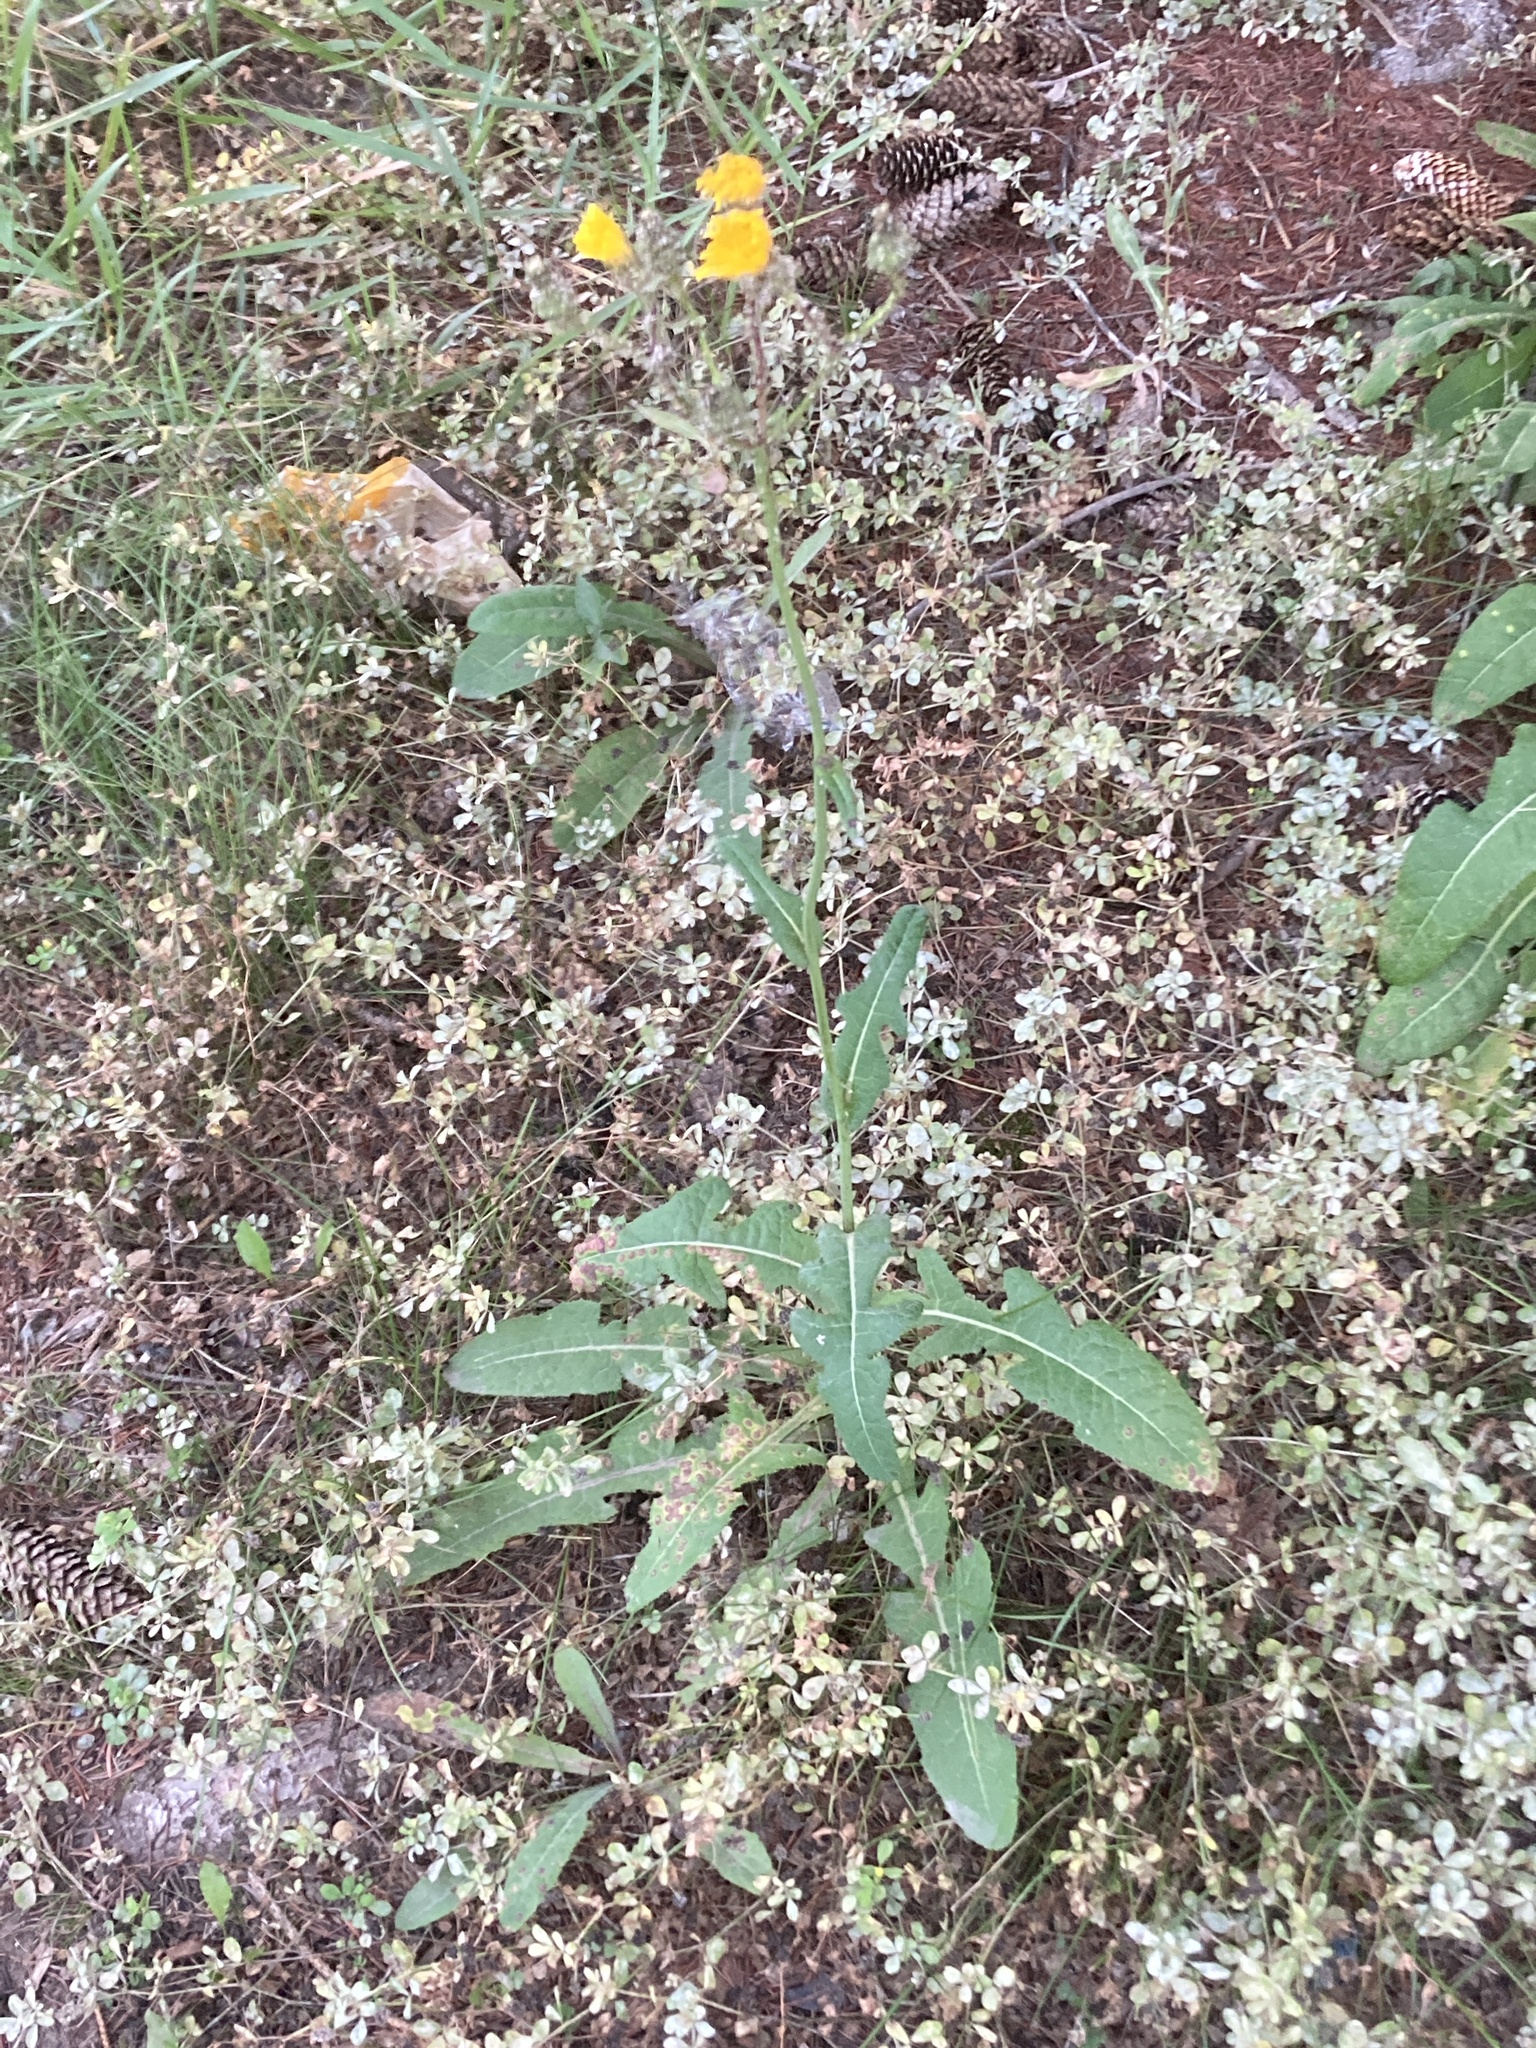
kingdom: Plantae
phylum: Tracheophyta
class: Magnoliopsida
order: Asterales
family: Asteraceae
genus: Sonchus
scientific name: Sonchus arvensis
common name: Perennial sow-thistle
